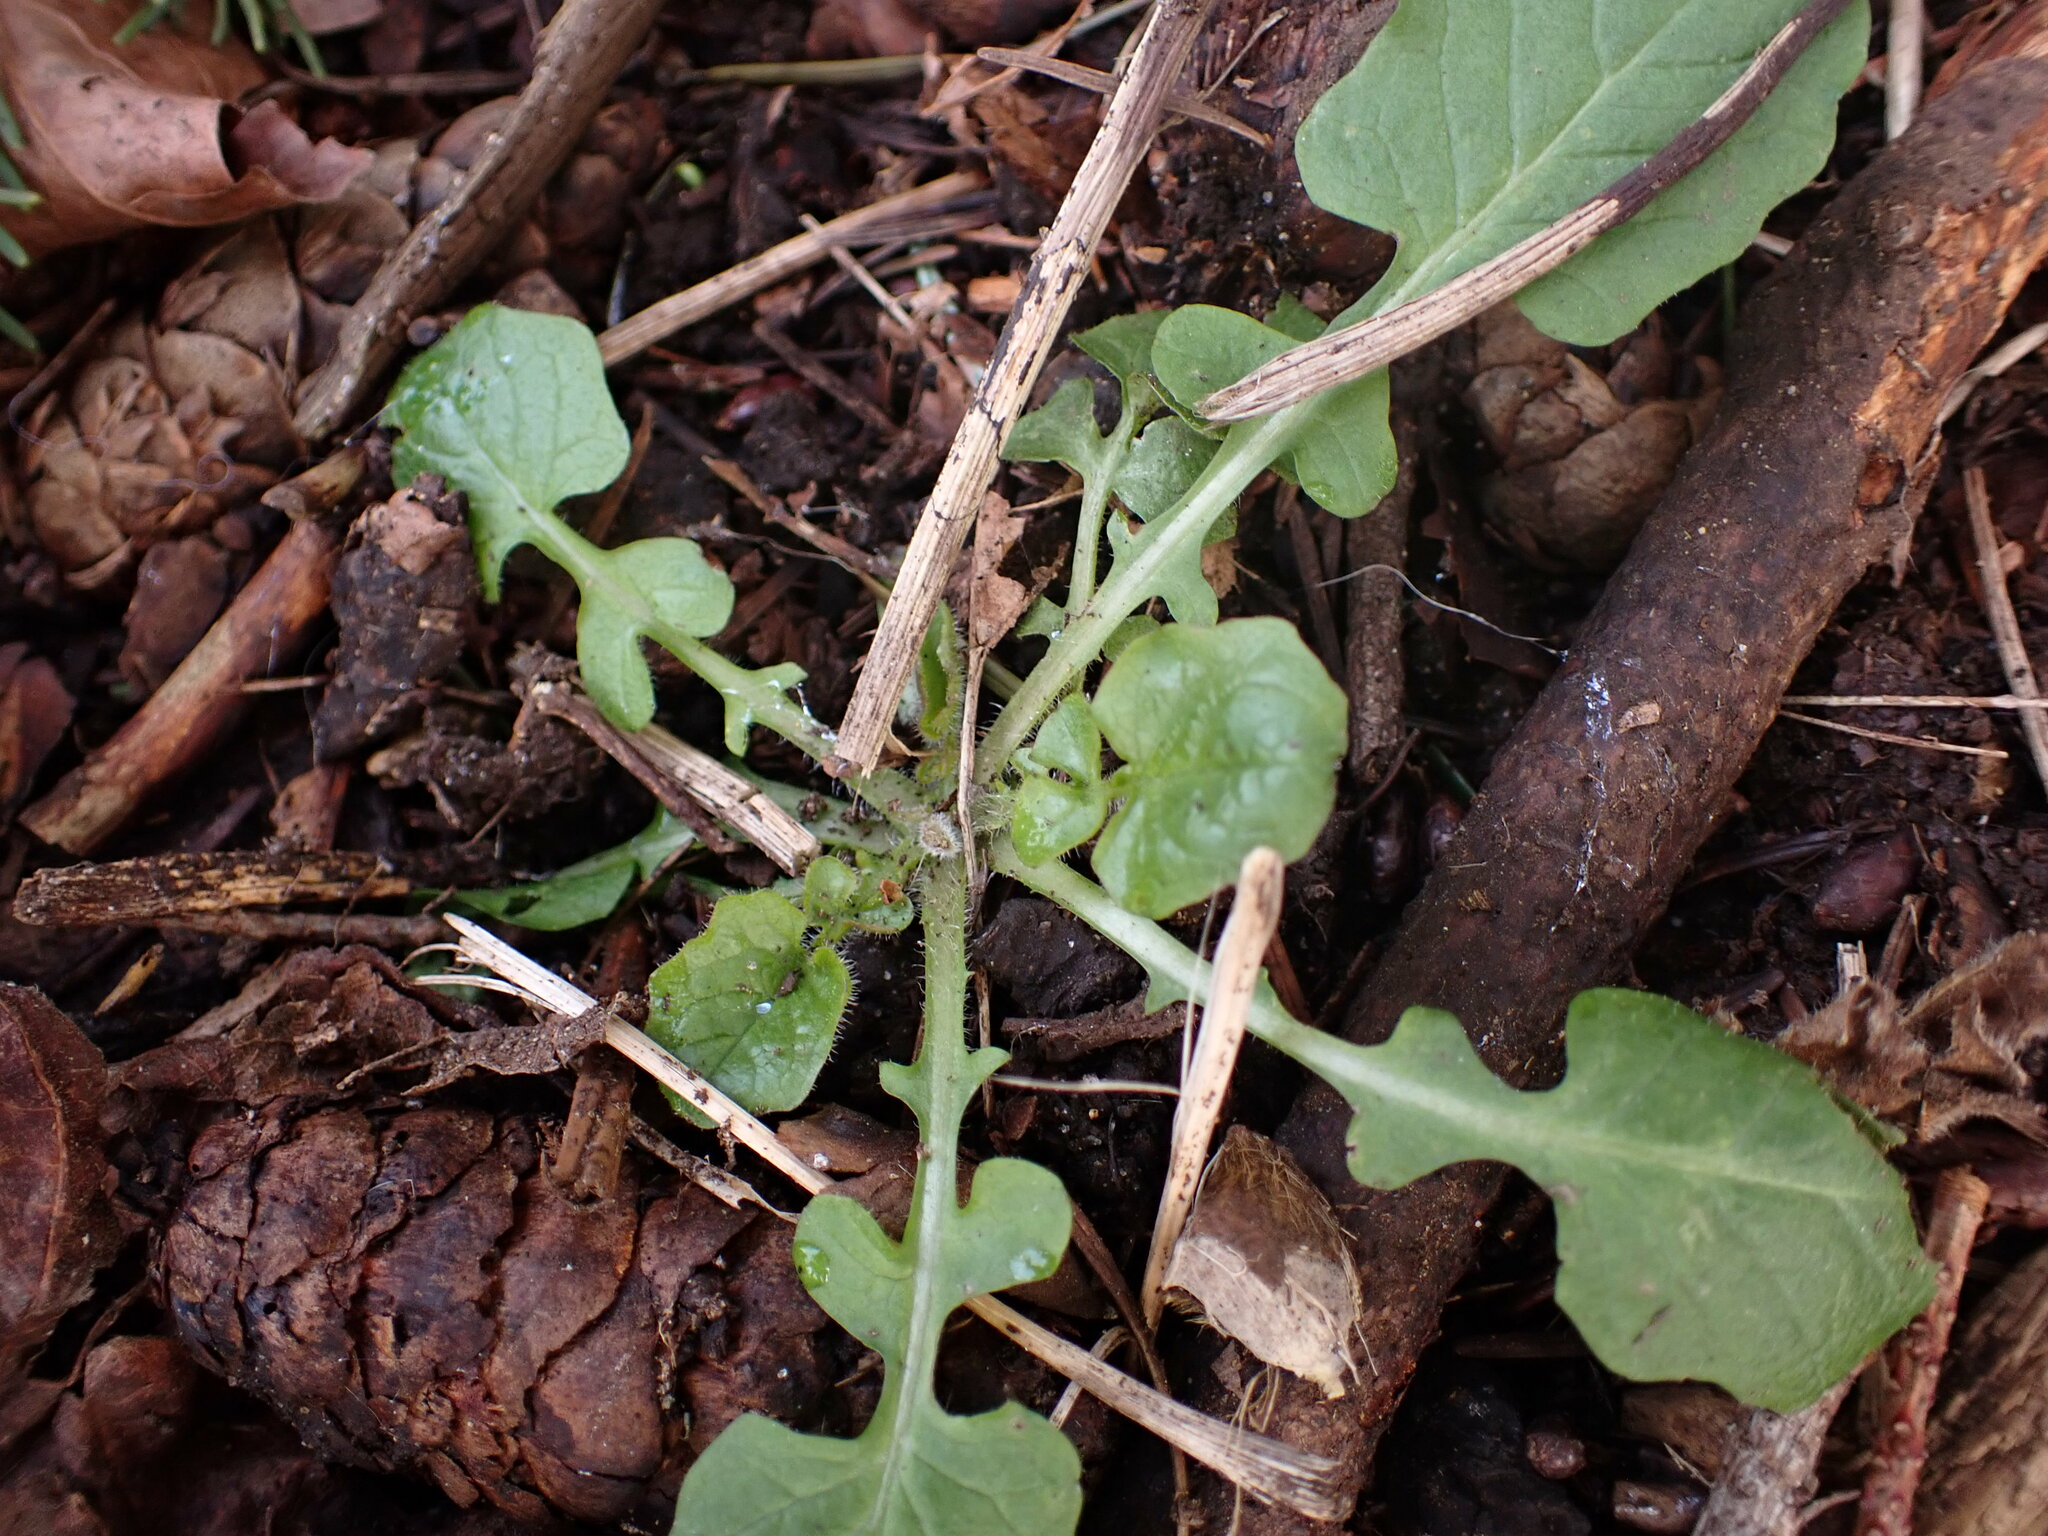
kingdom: Plantae
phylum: Tracheophyta
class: Magnoliopsida
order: Asterales
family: Asteraceae
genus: Lapsana
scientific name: Lapsana communis
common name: Nipplewort
